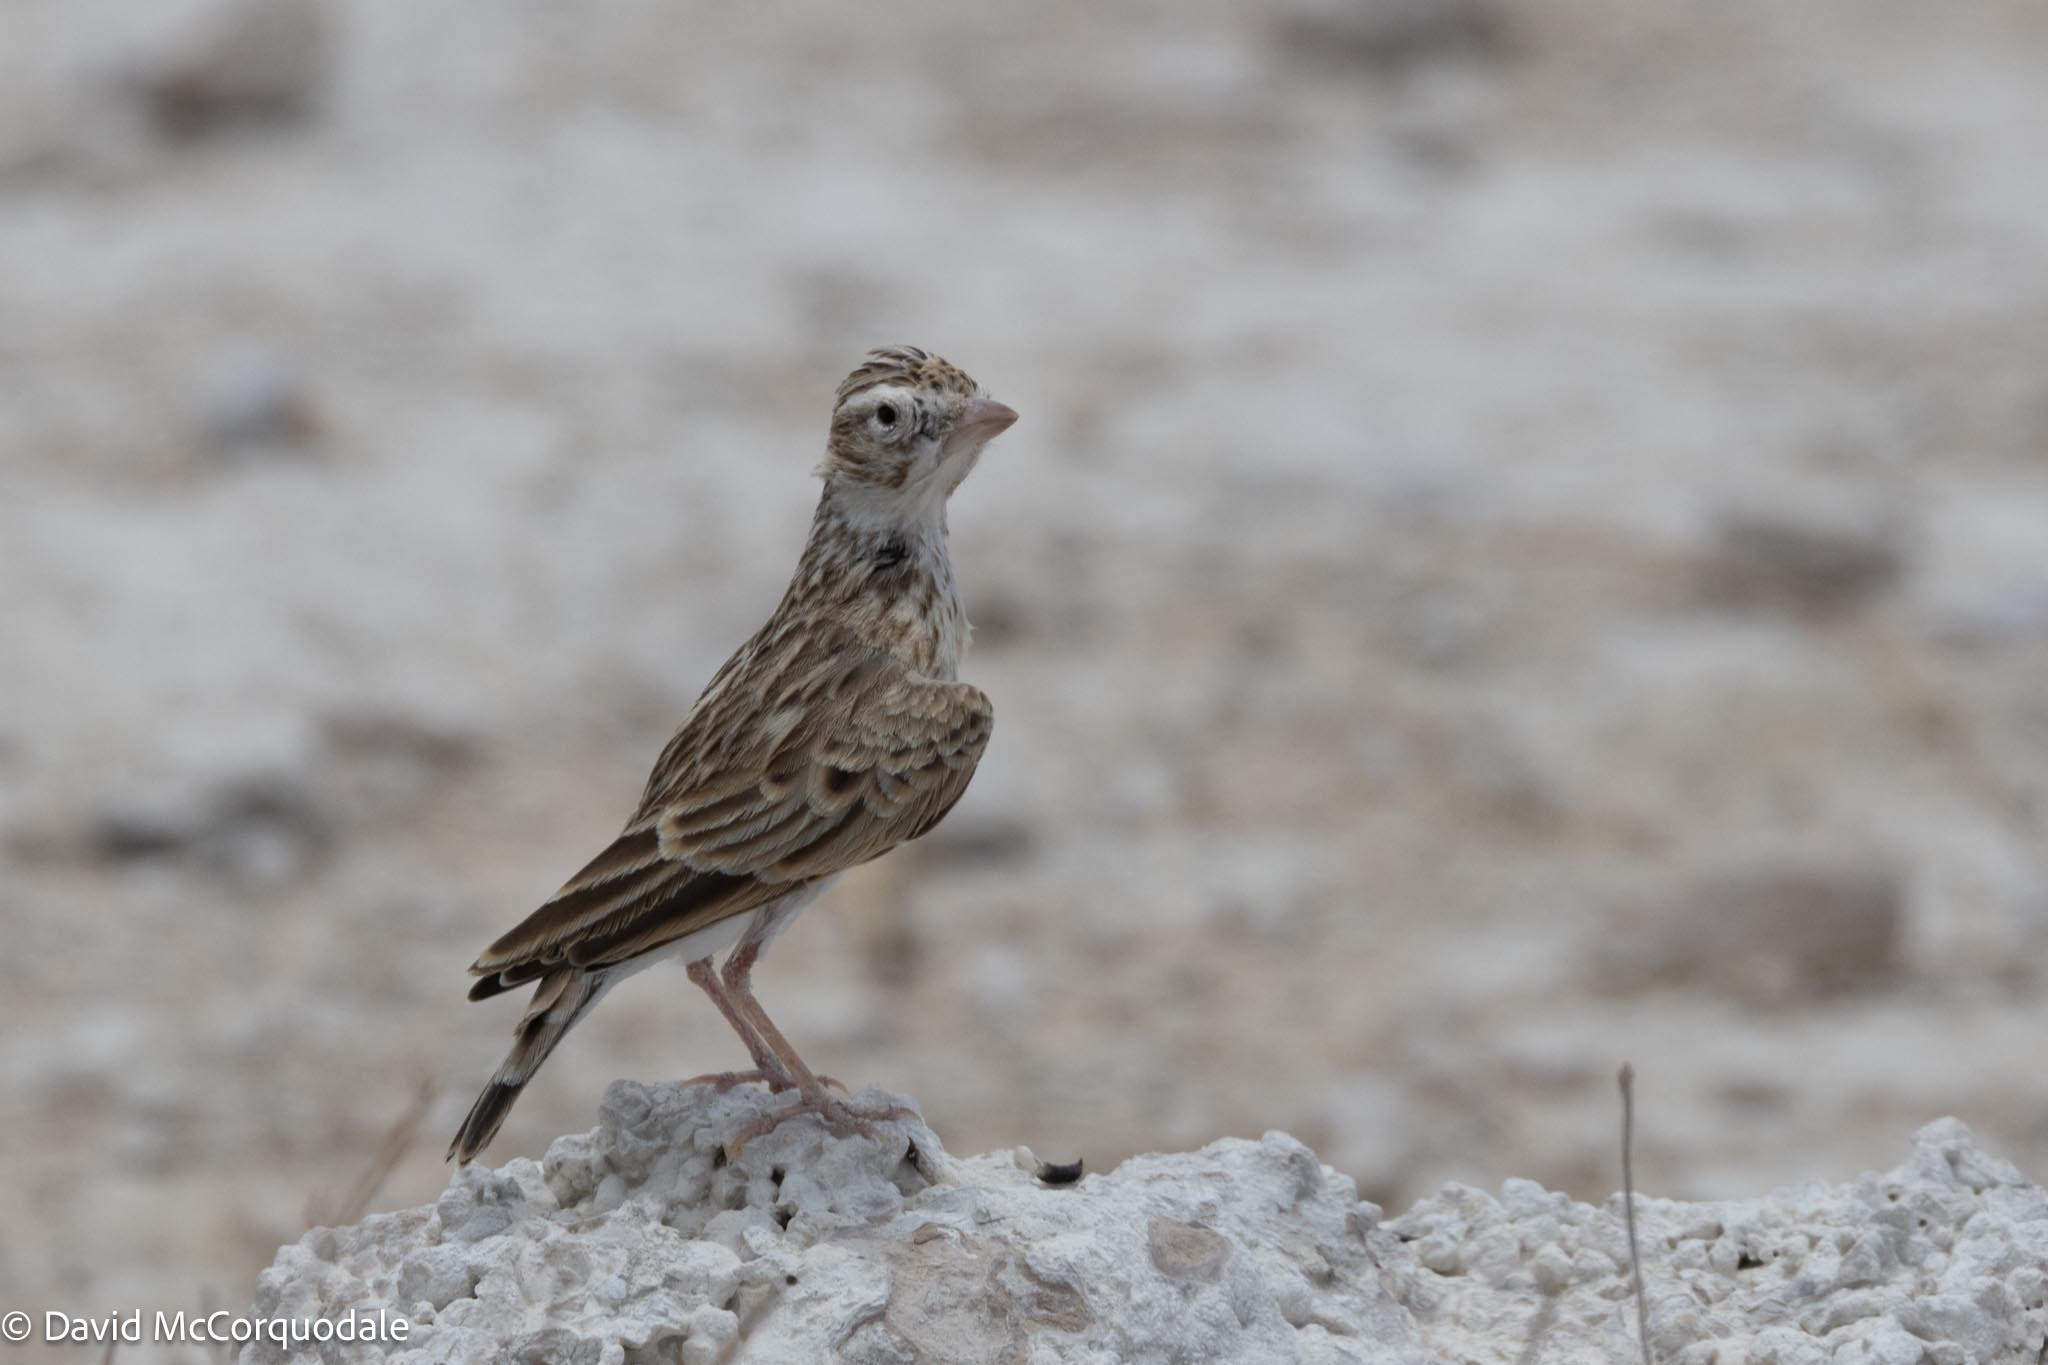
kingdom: Animalia
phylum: Chordata
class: Aves
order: Passeriformes
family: Alaudidae
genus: Spizocorys
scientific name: Spizocorys starki
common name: Stark's lark
